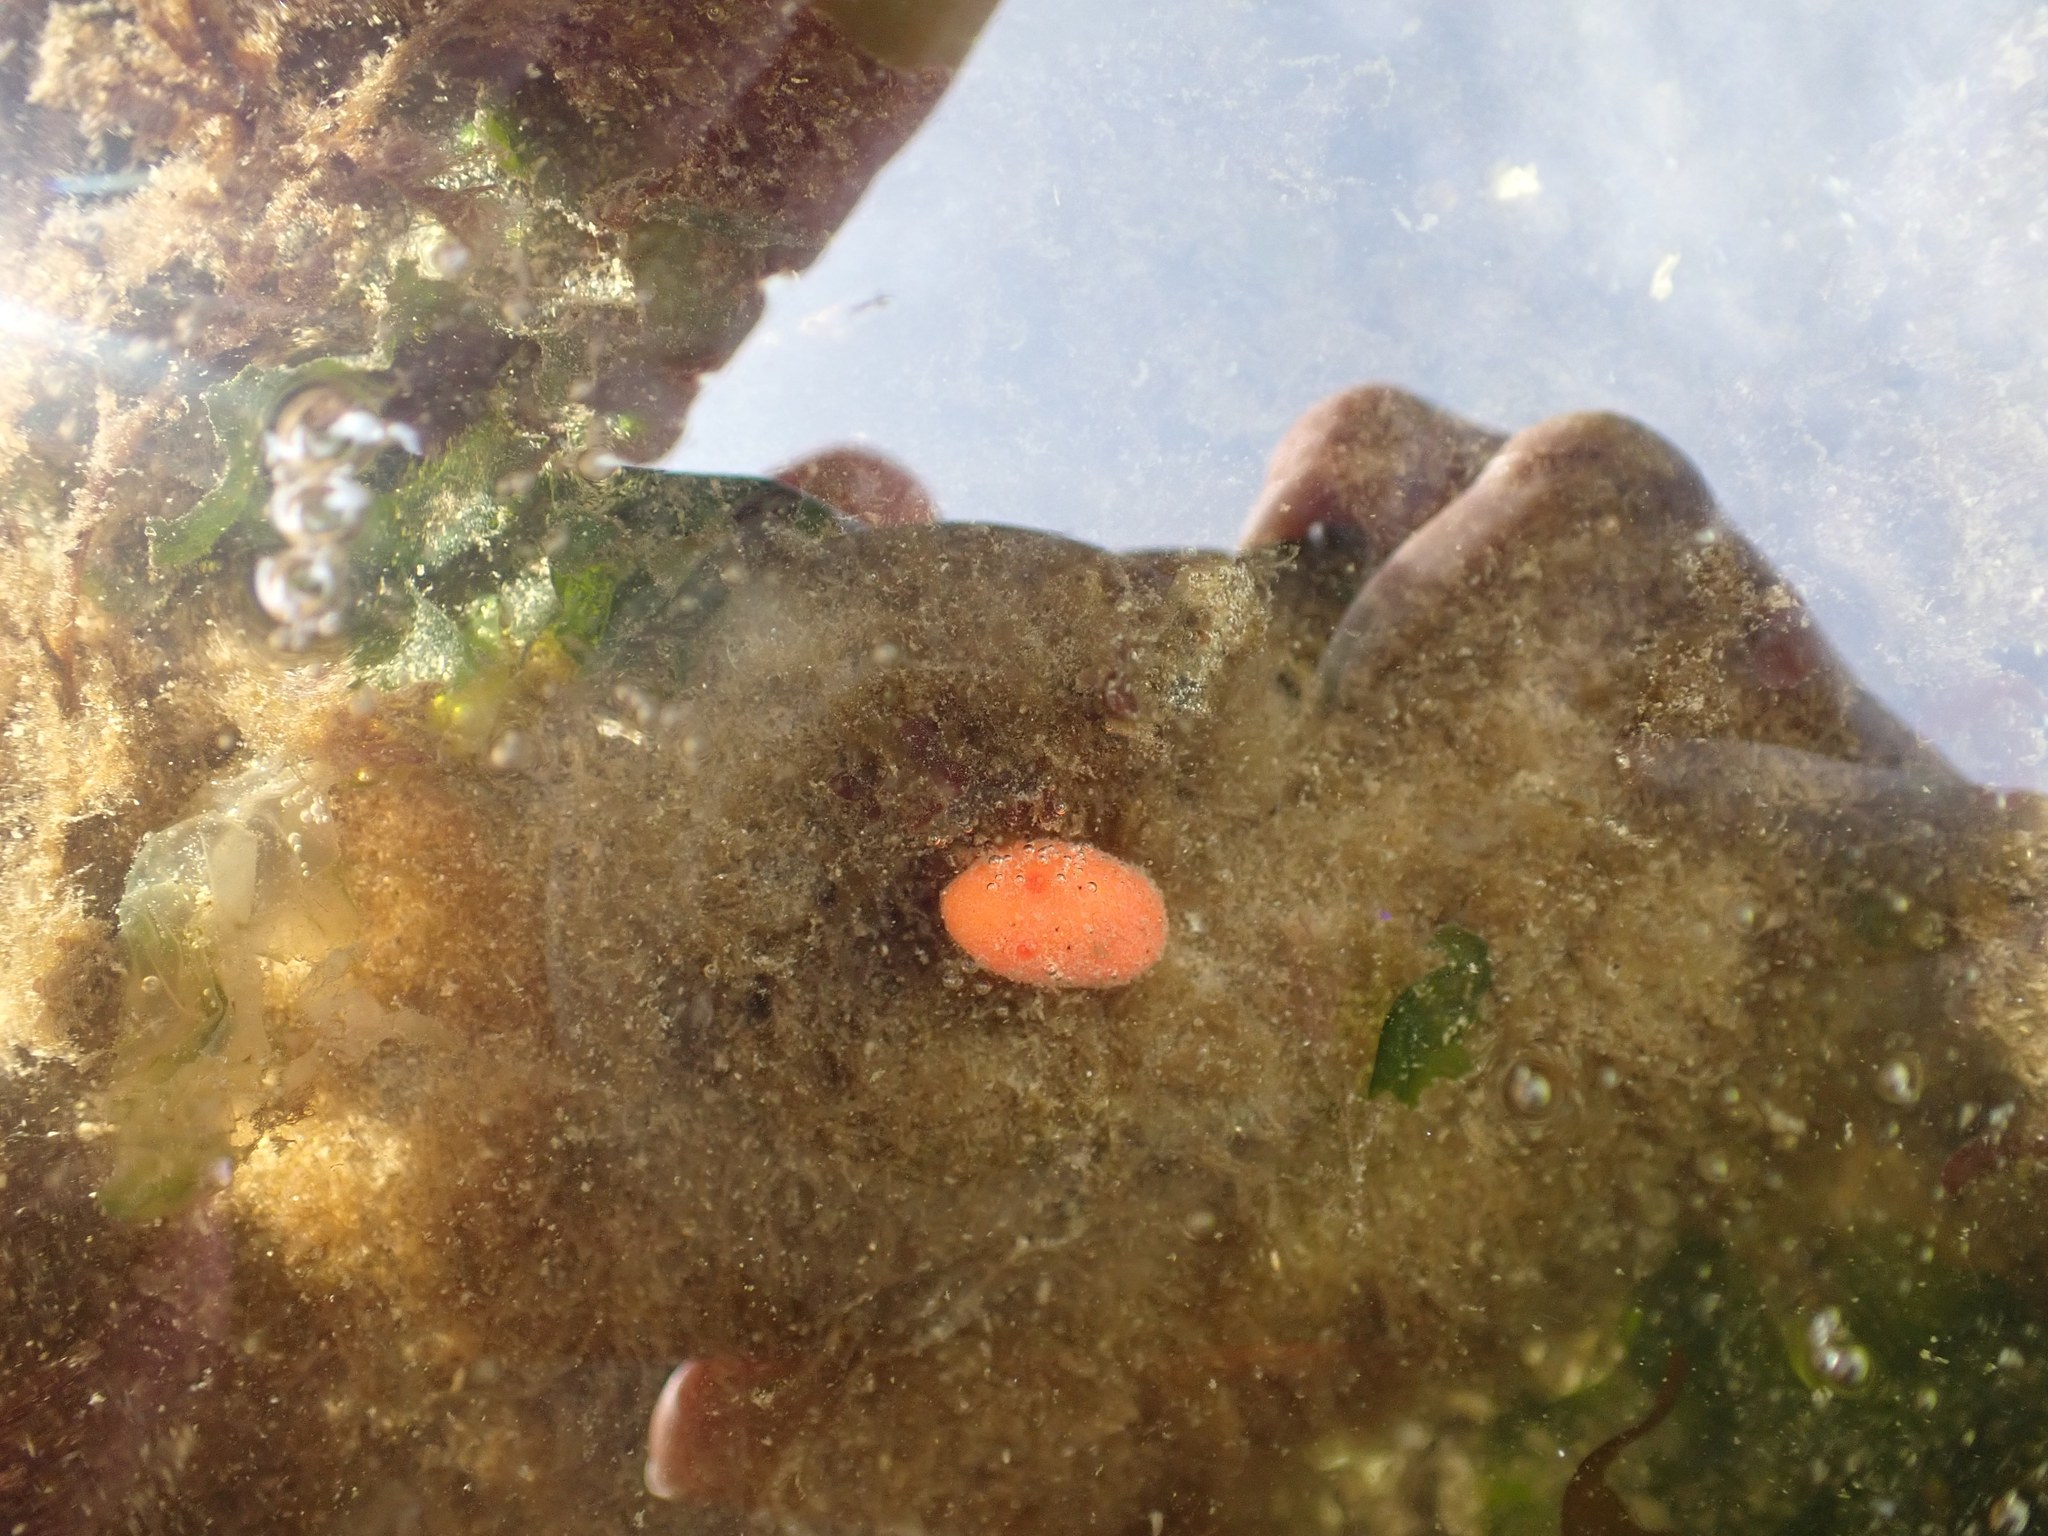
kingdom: Animalia
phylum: Mollusca
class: Gastropoda
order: Nudibranchia
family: Discodorididae
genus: Rostanga
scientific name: Rostanga pulchra
